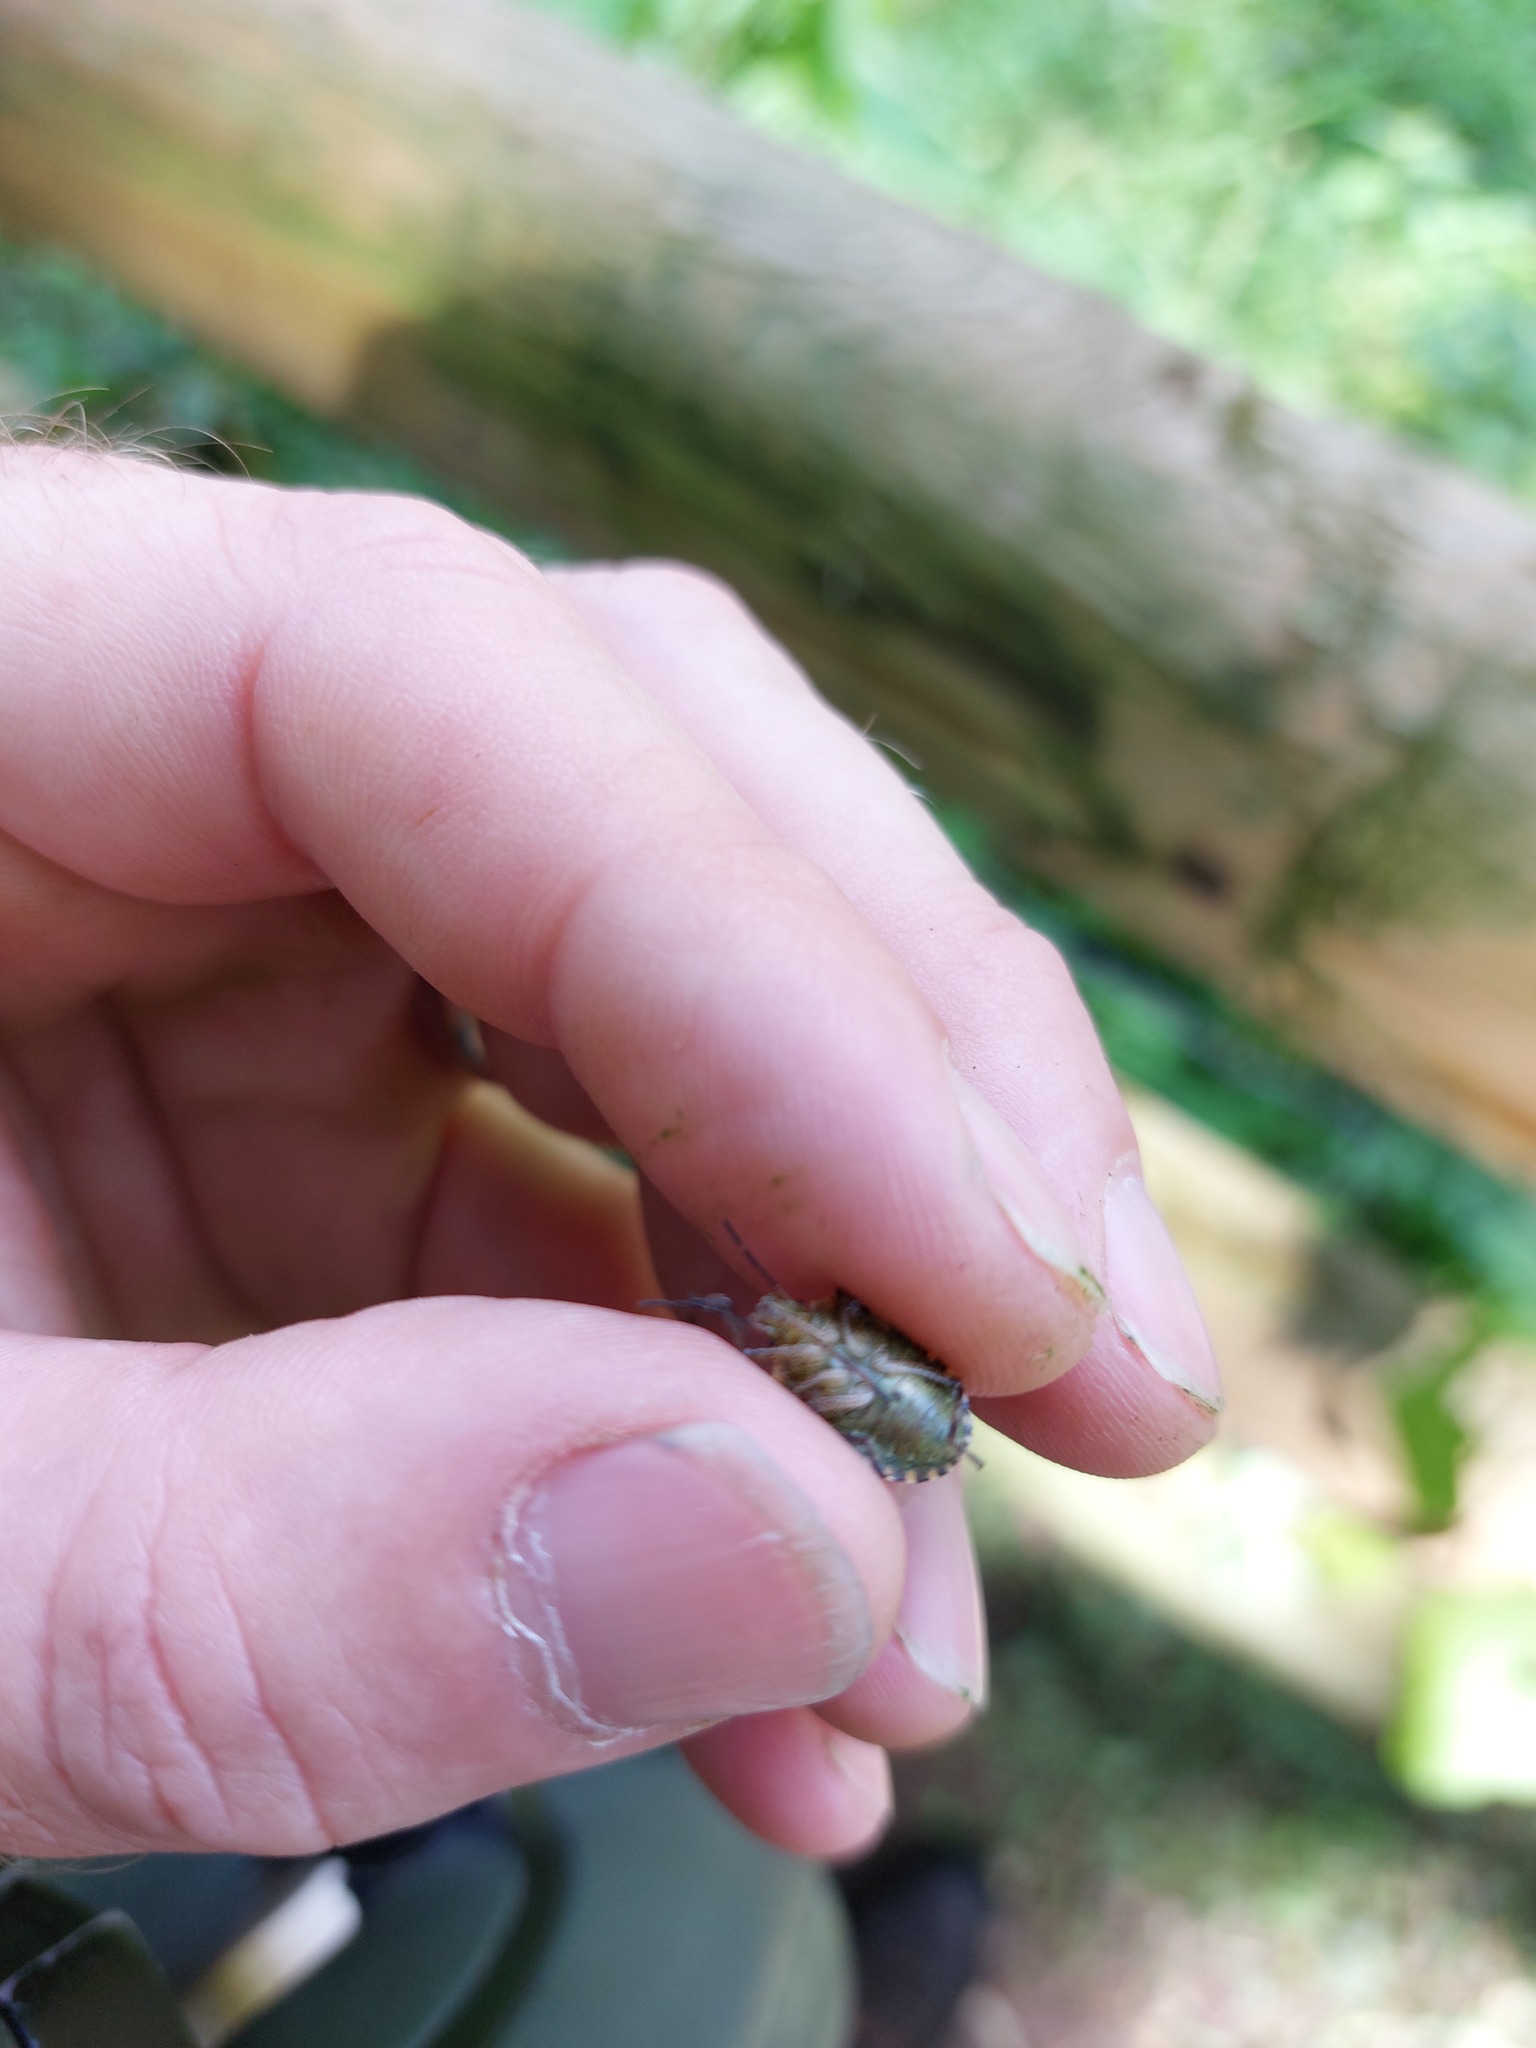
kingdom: Animalia
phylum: Arthropoda
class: Insecta
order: Hemiptera
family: Pentatomidae
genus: Pentatoma
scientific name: Pentatoma rufipes
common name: Forest bug
